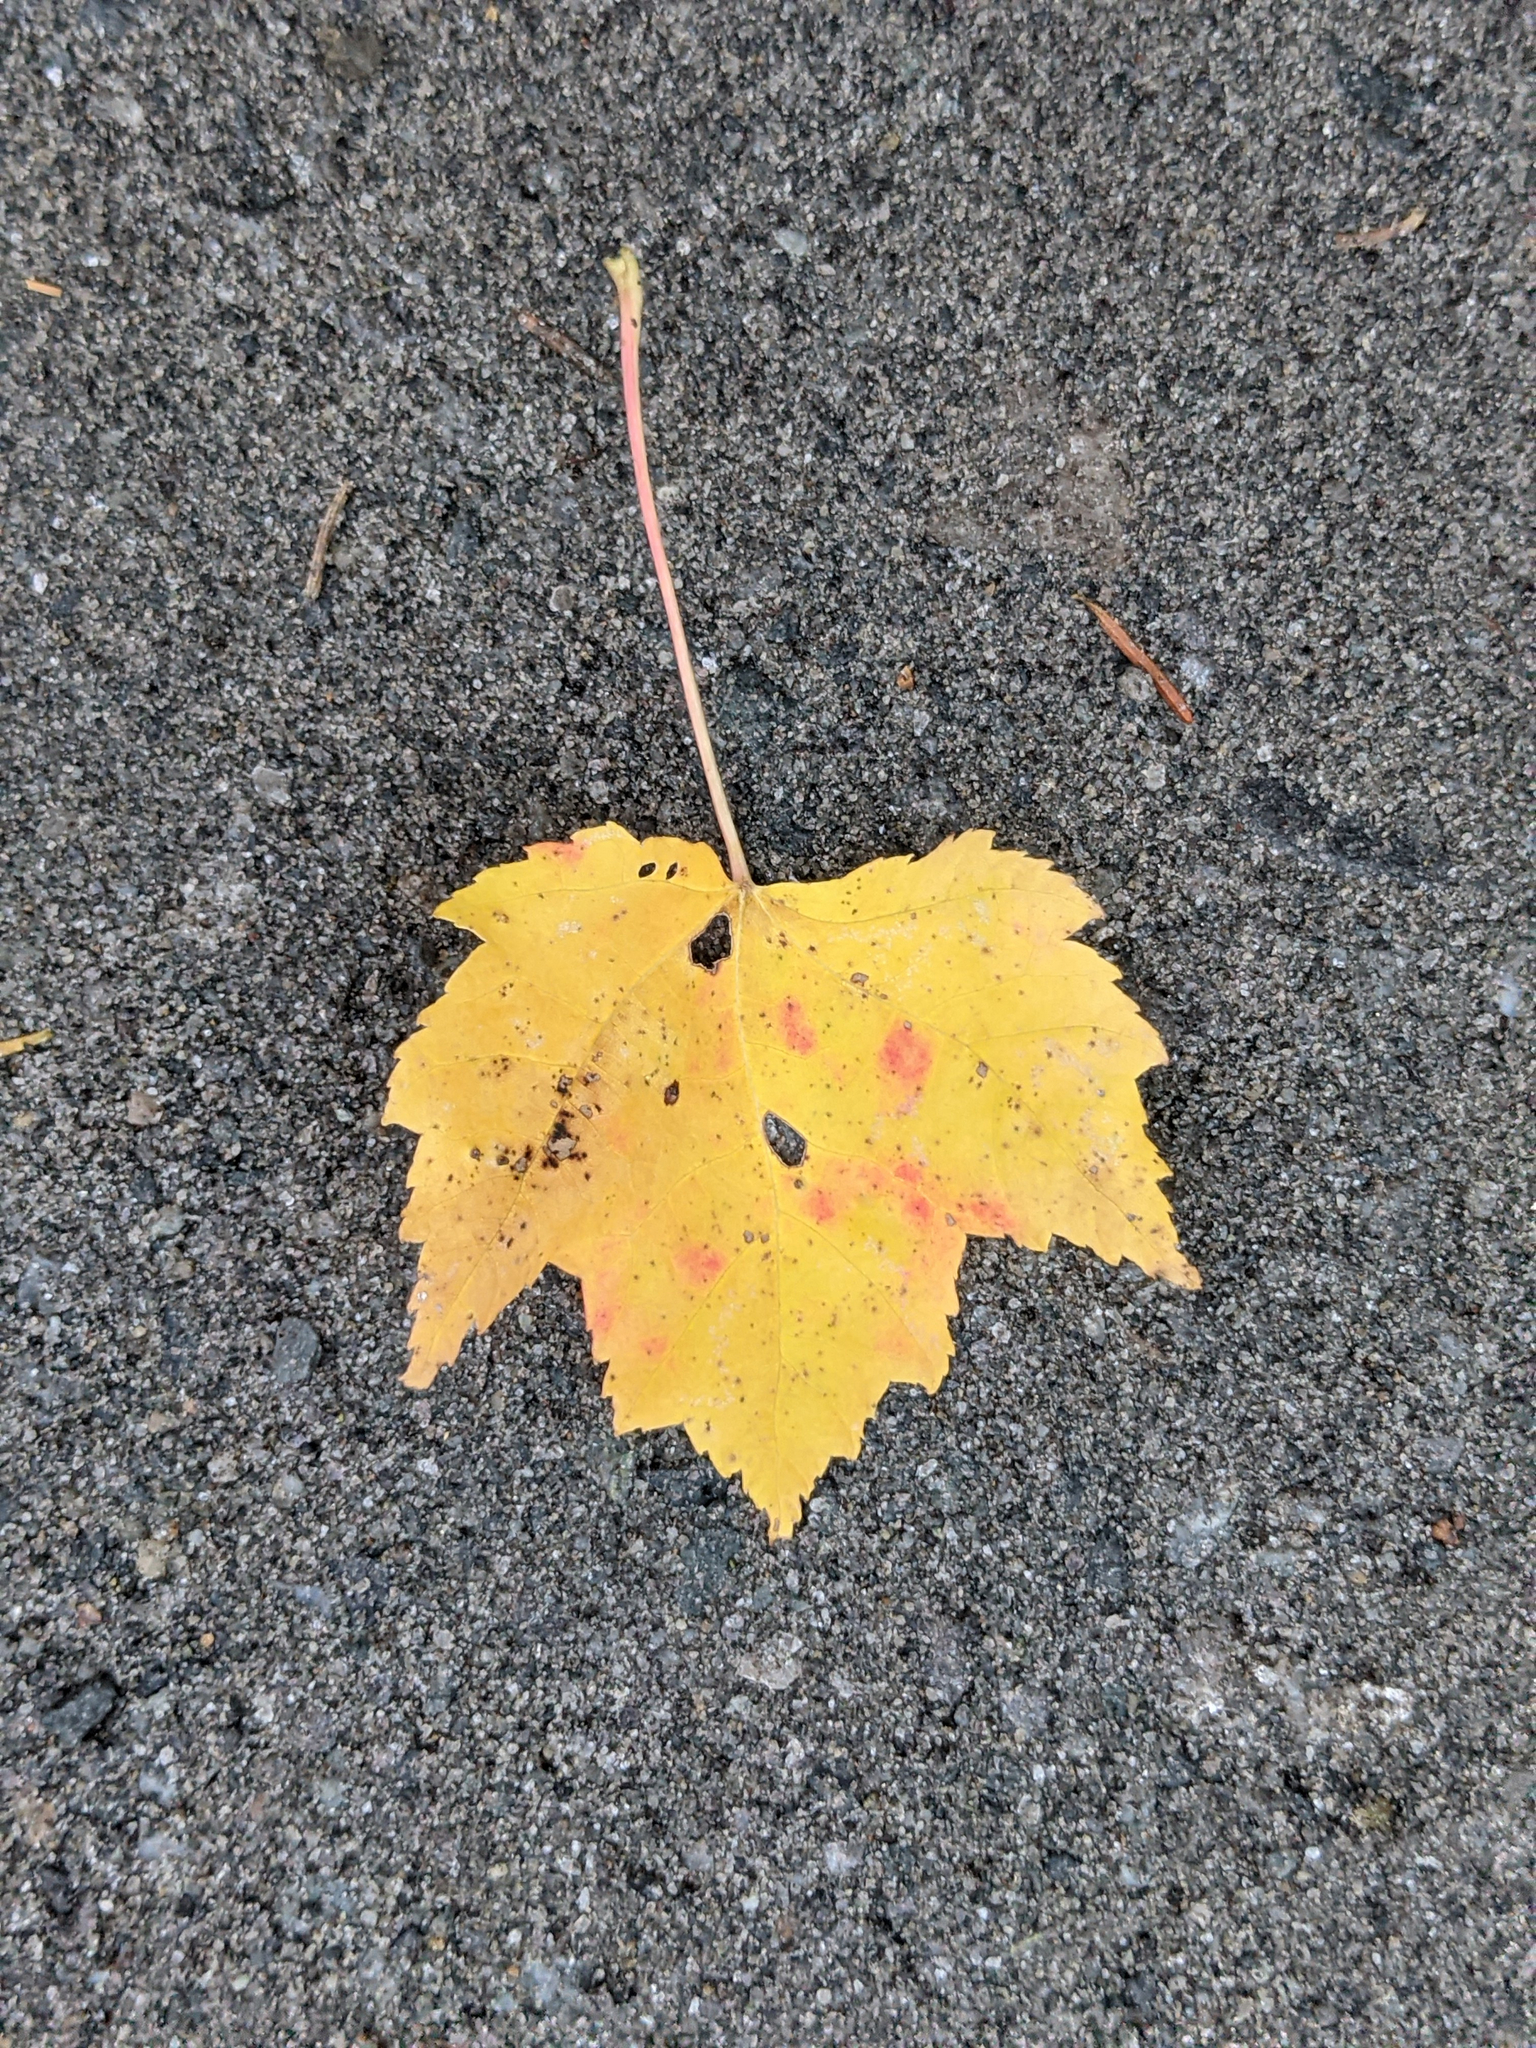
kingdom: Plantae
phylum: Tracheophyta
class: Magnoliopsida
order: Sapindales
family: Sapindaceae
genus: Acer
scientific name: Acer rubrum
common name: Red maple
